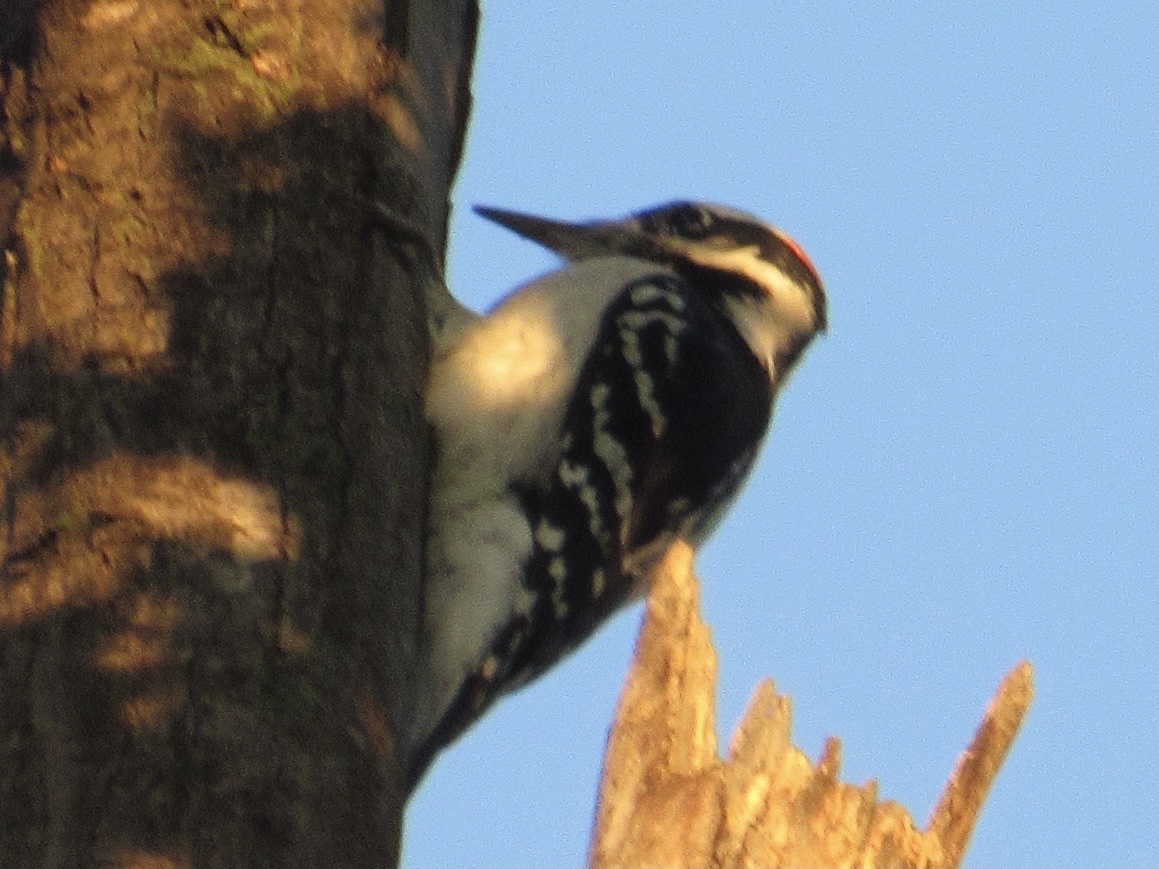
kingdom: Animalia
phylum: Chordata
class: Aves
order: Piciformes
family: Picidae
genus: Leuconotopicus
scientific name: Leuconotopicus villosus
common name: Hairy woodpecker
